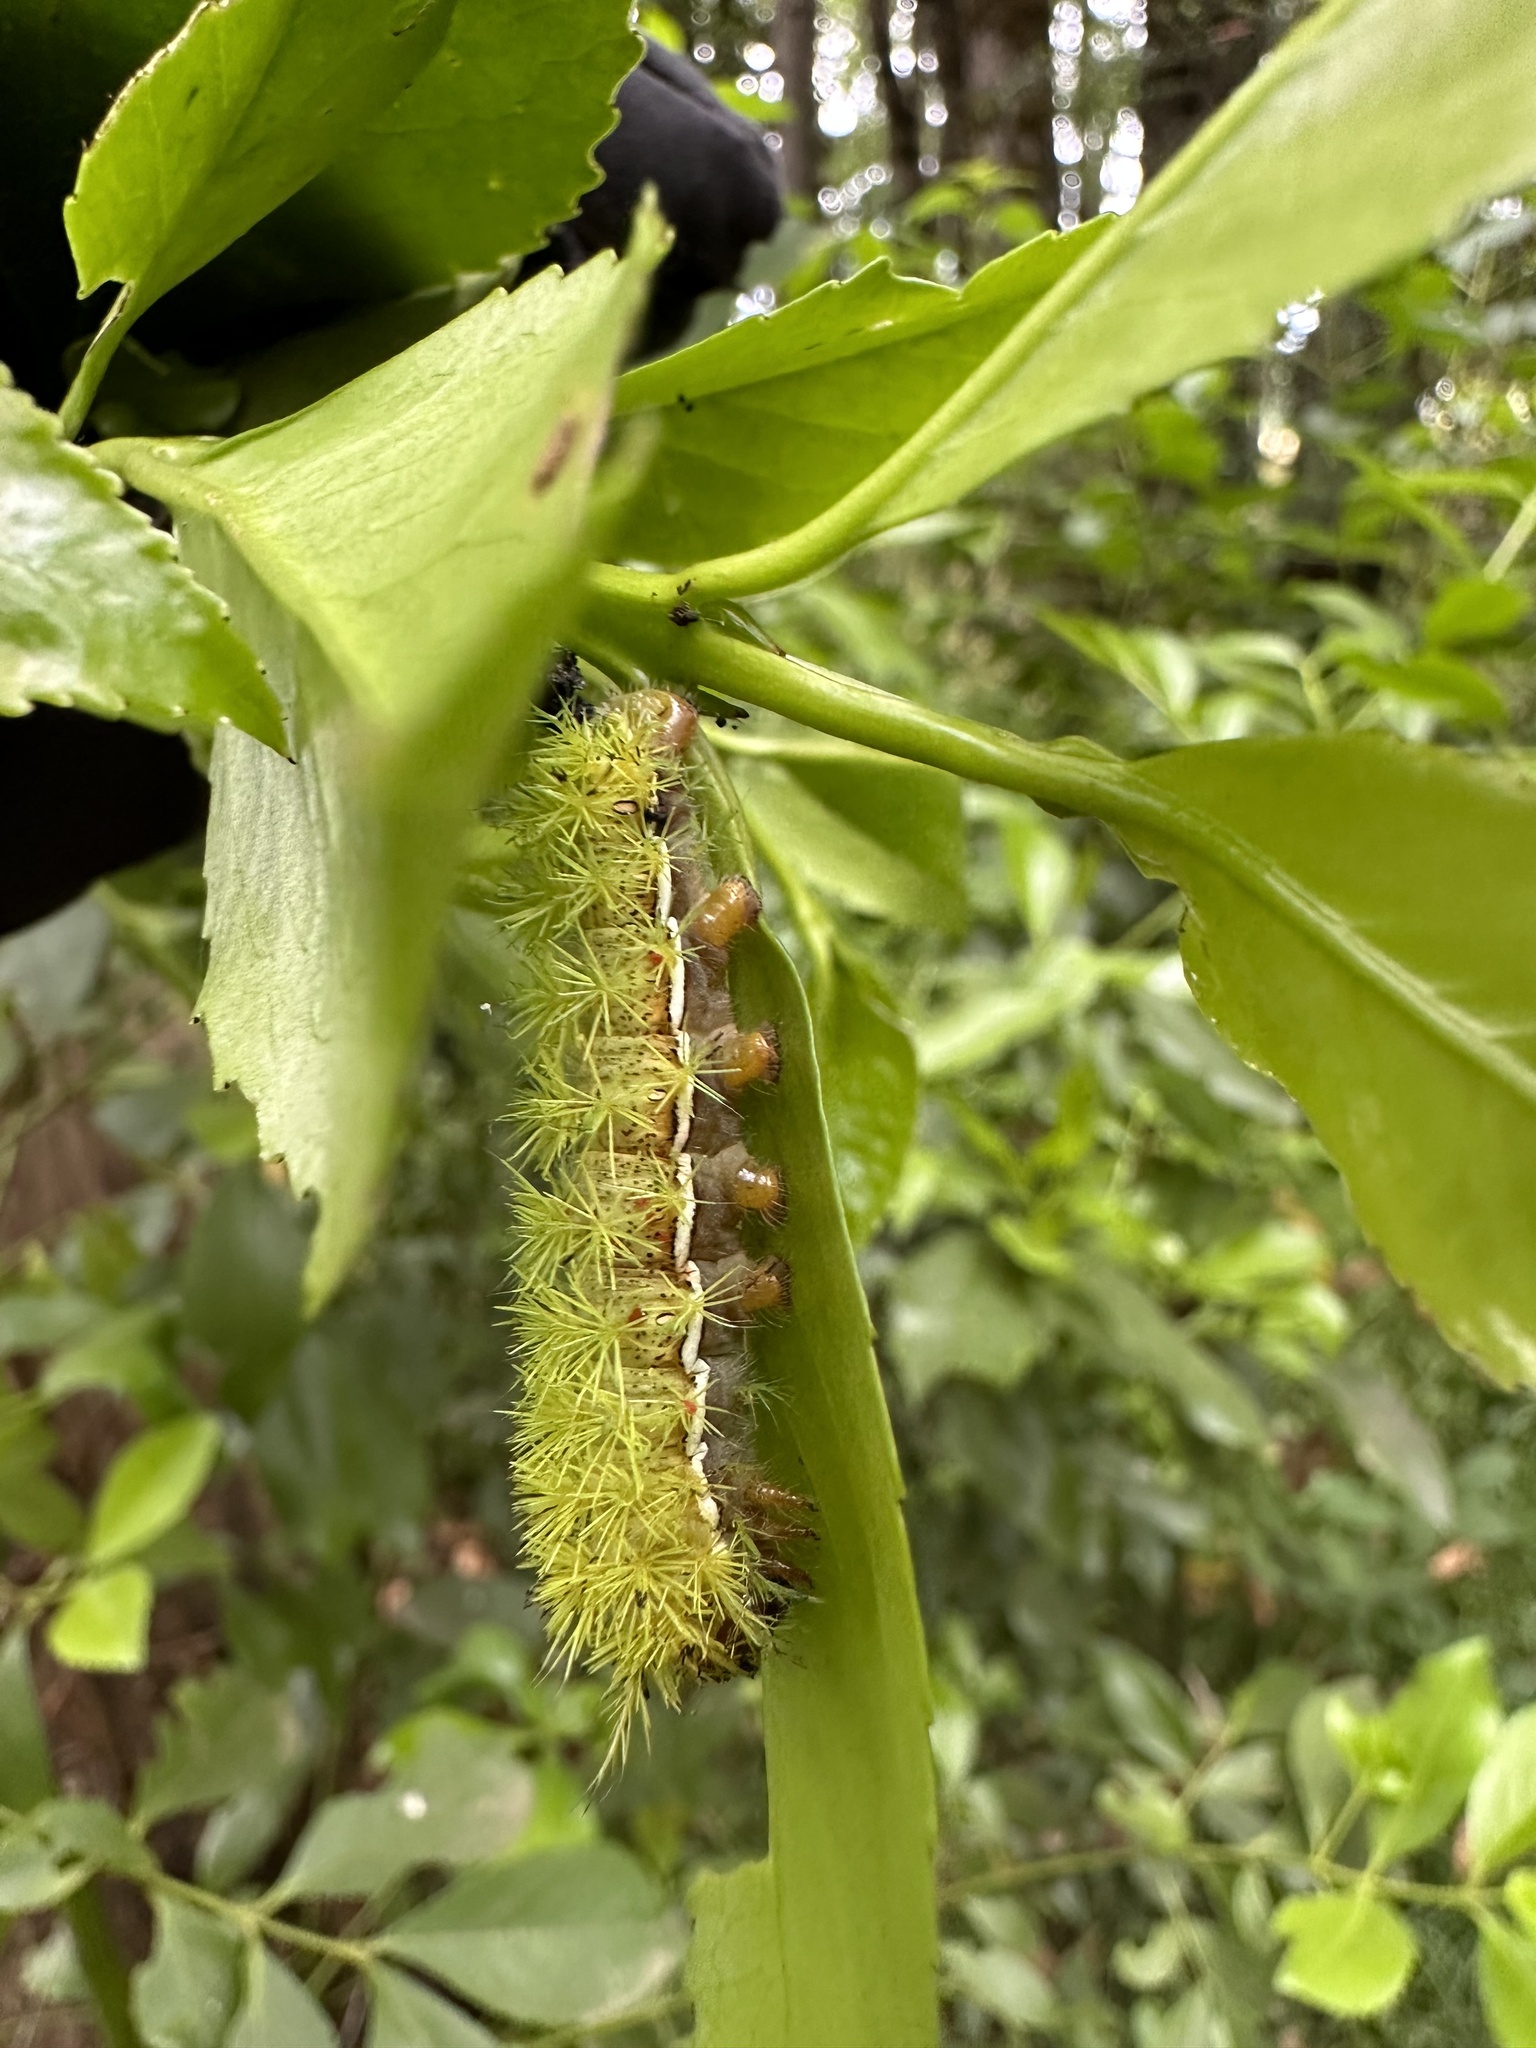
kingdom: Animalia
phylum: Arthropoda
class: Insecta
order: Lepidoptera
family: Saturniidae
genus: Adetomeris
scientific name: Adetomeris erythrops
